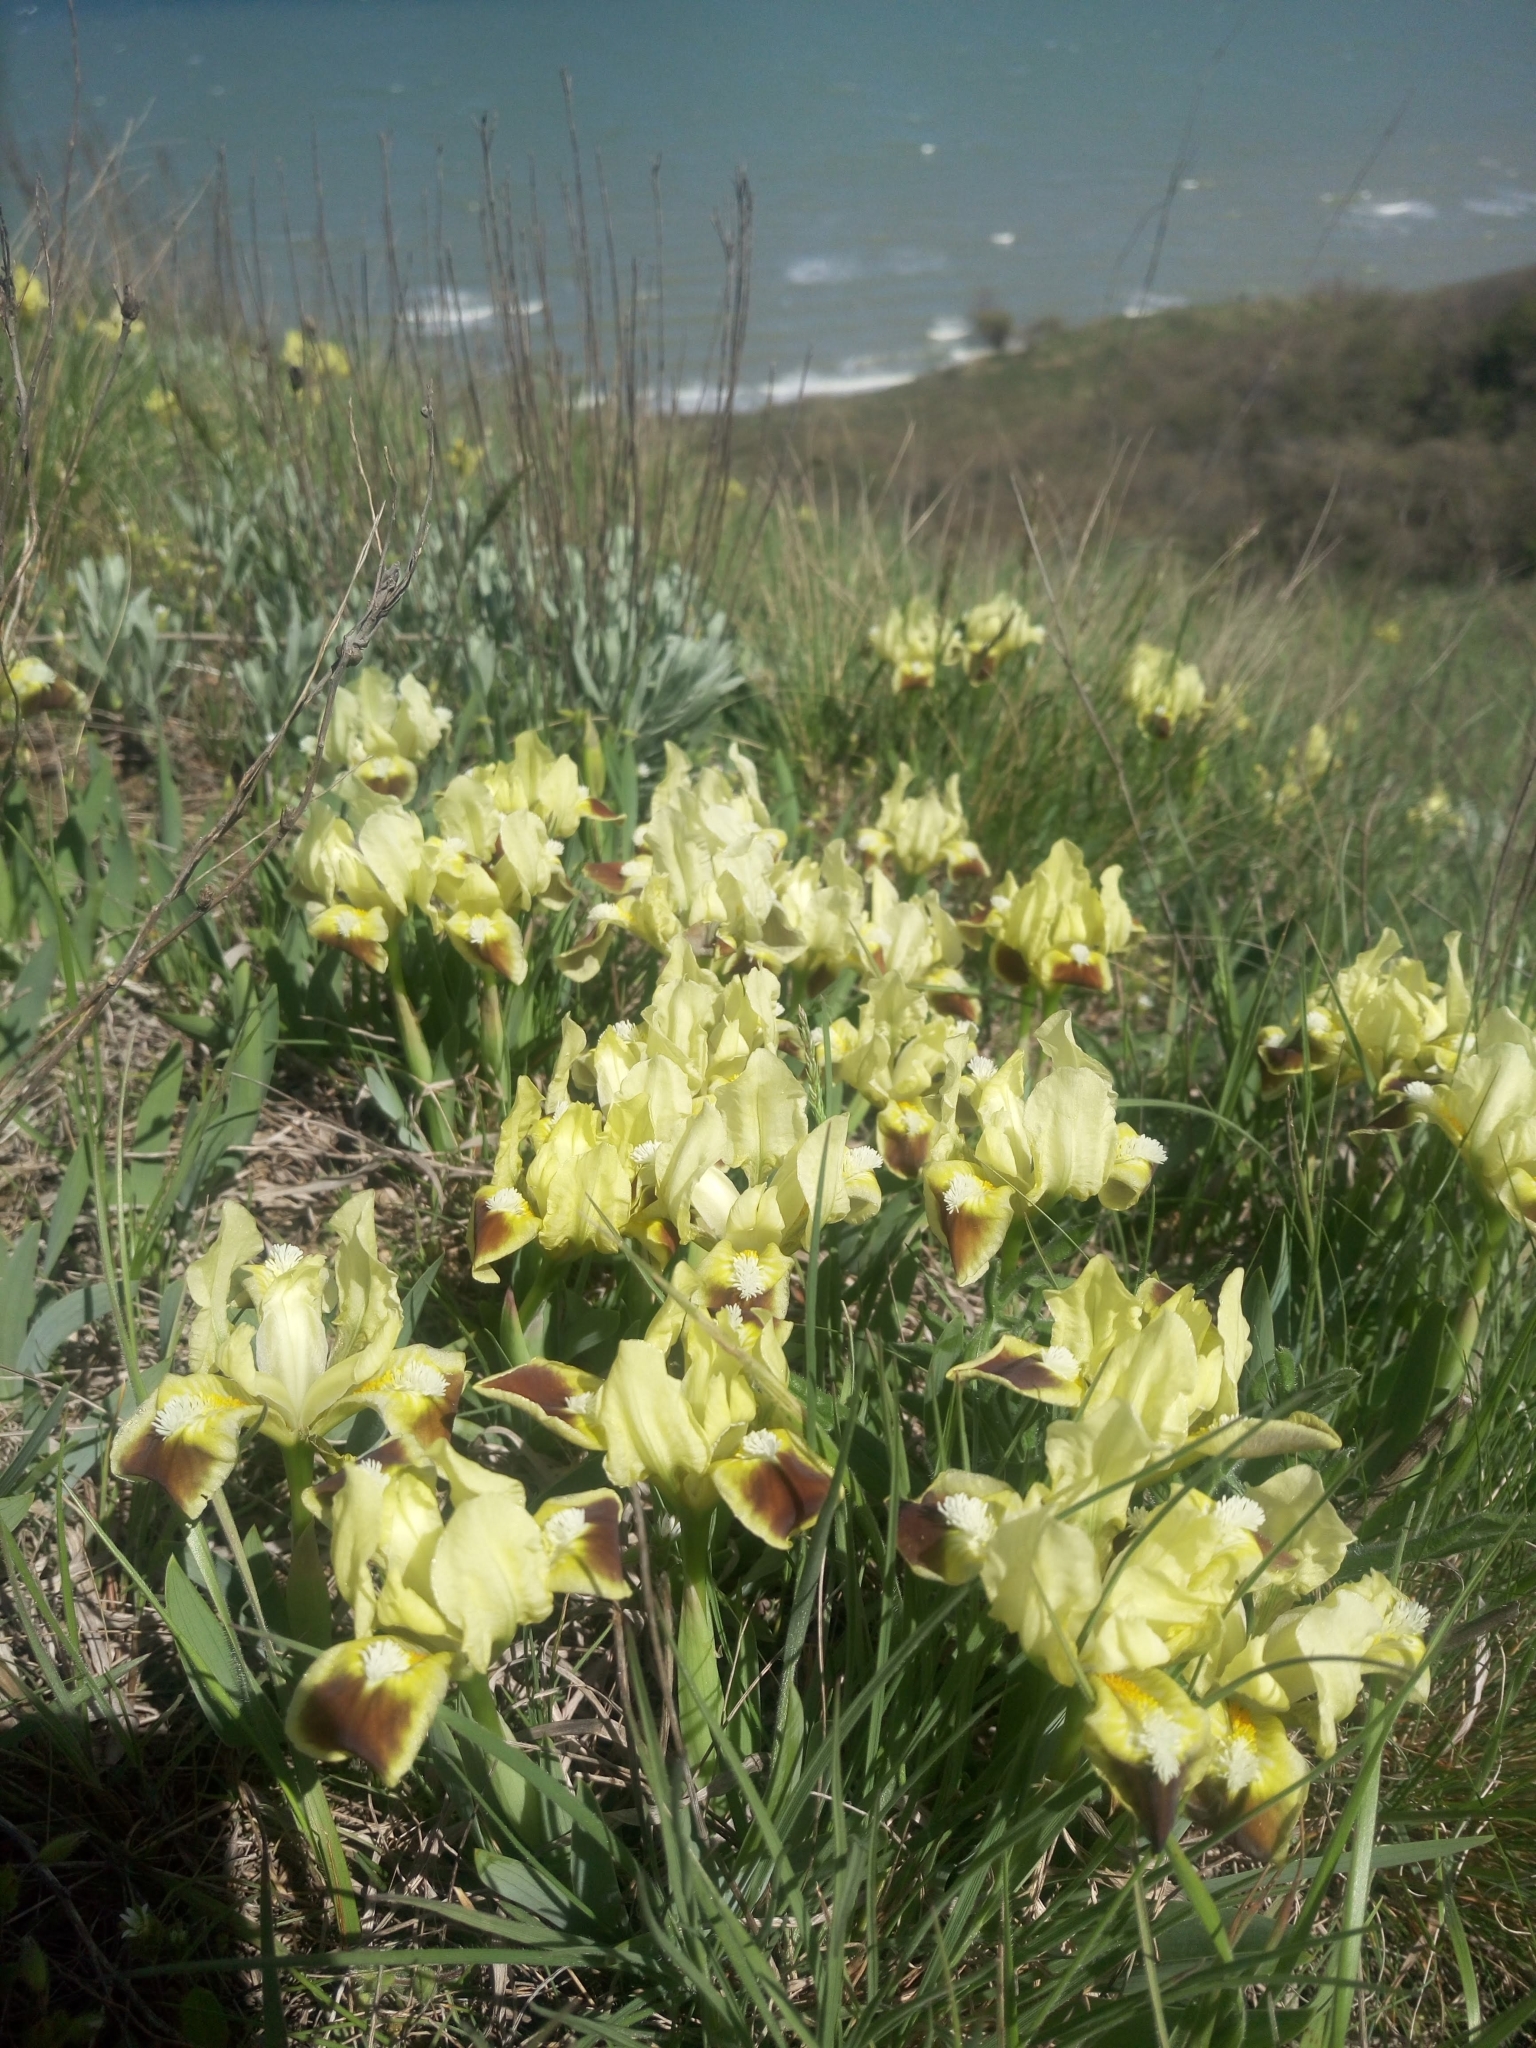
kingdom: Plantae
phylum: Tracheophyta
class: Liliopsida
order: Asparagales
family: Iridaceae
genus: Iris
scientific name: Iris pumila
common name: Dwarf iris
